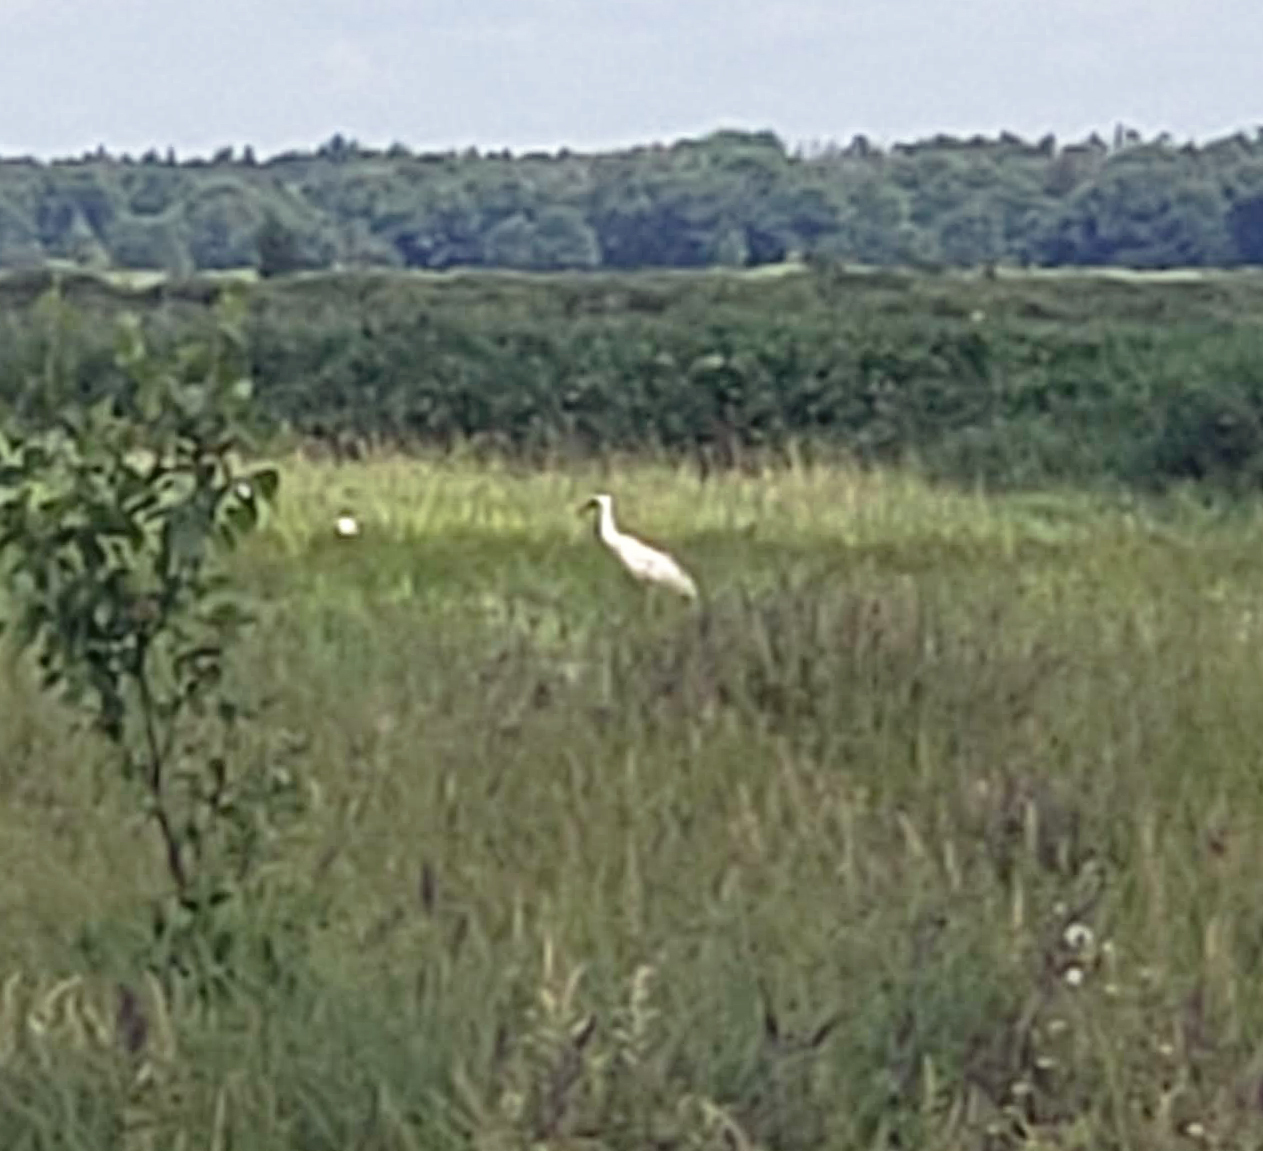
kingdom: Animalia
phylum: Chordata
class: Aves
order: Gruiformes
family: Gruidae
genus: Grus
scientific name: Grus americana
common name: Whooping crane
